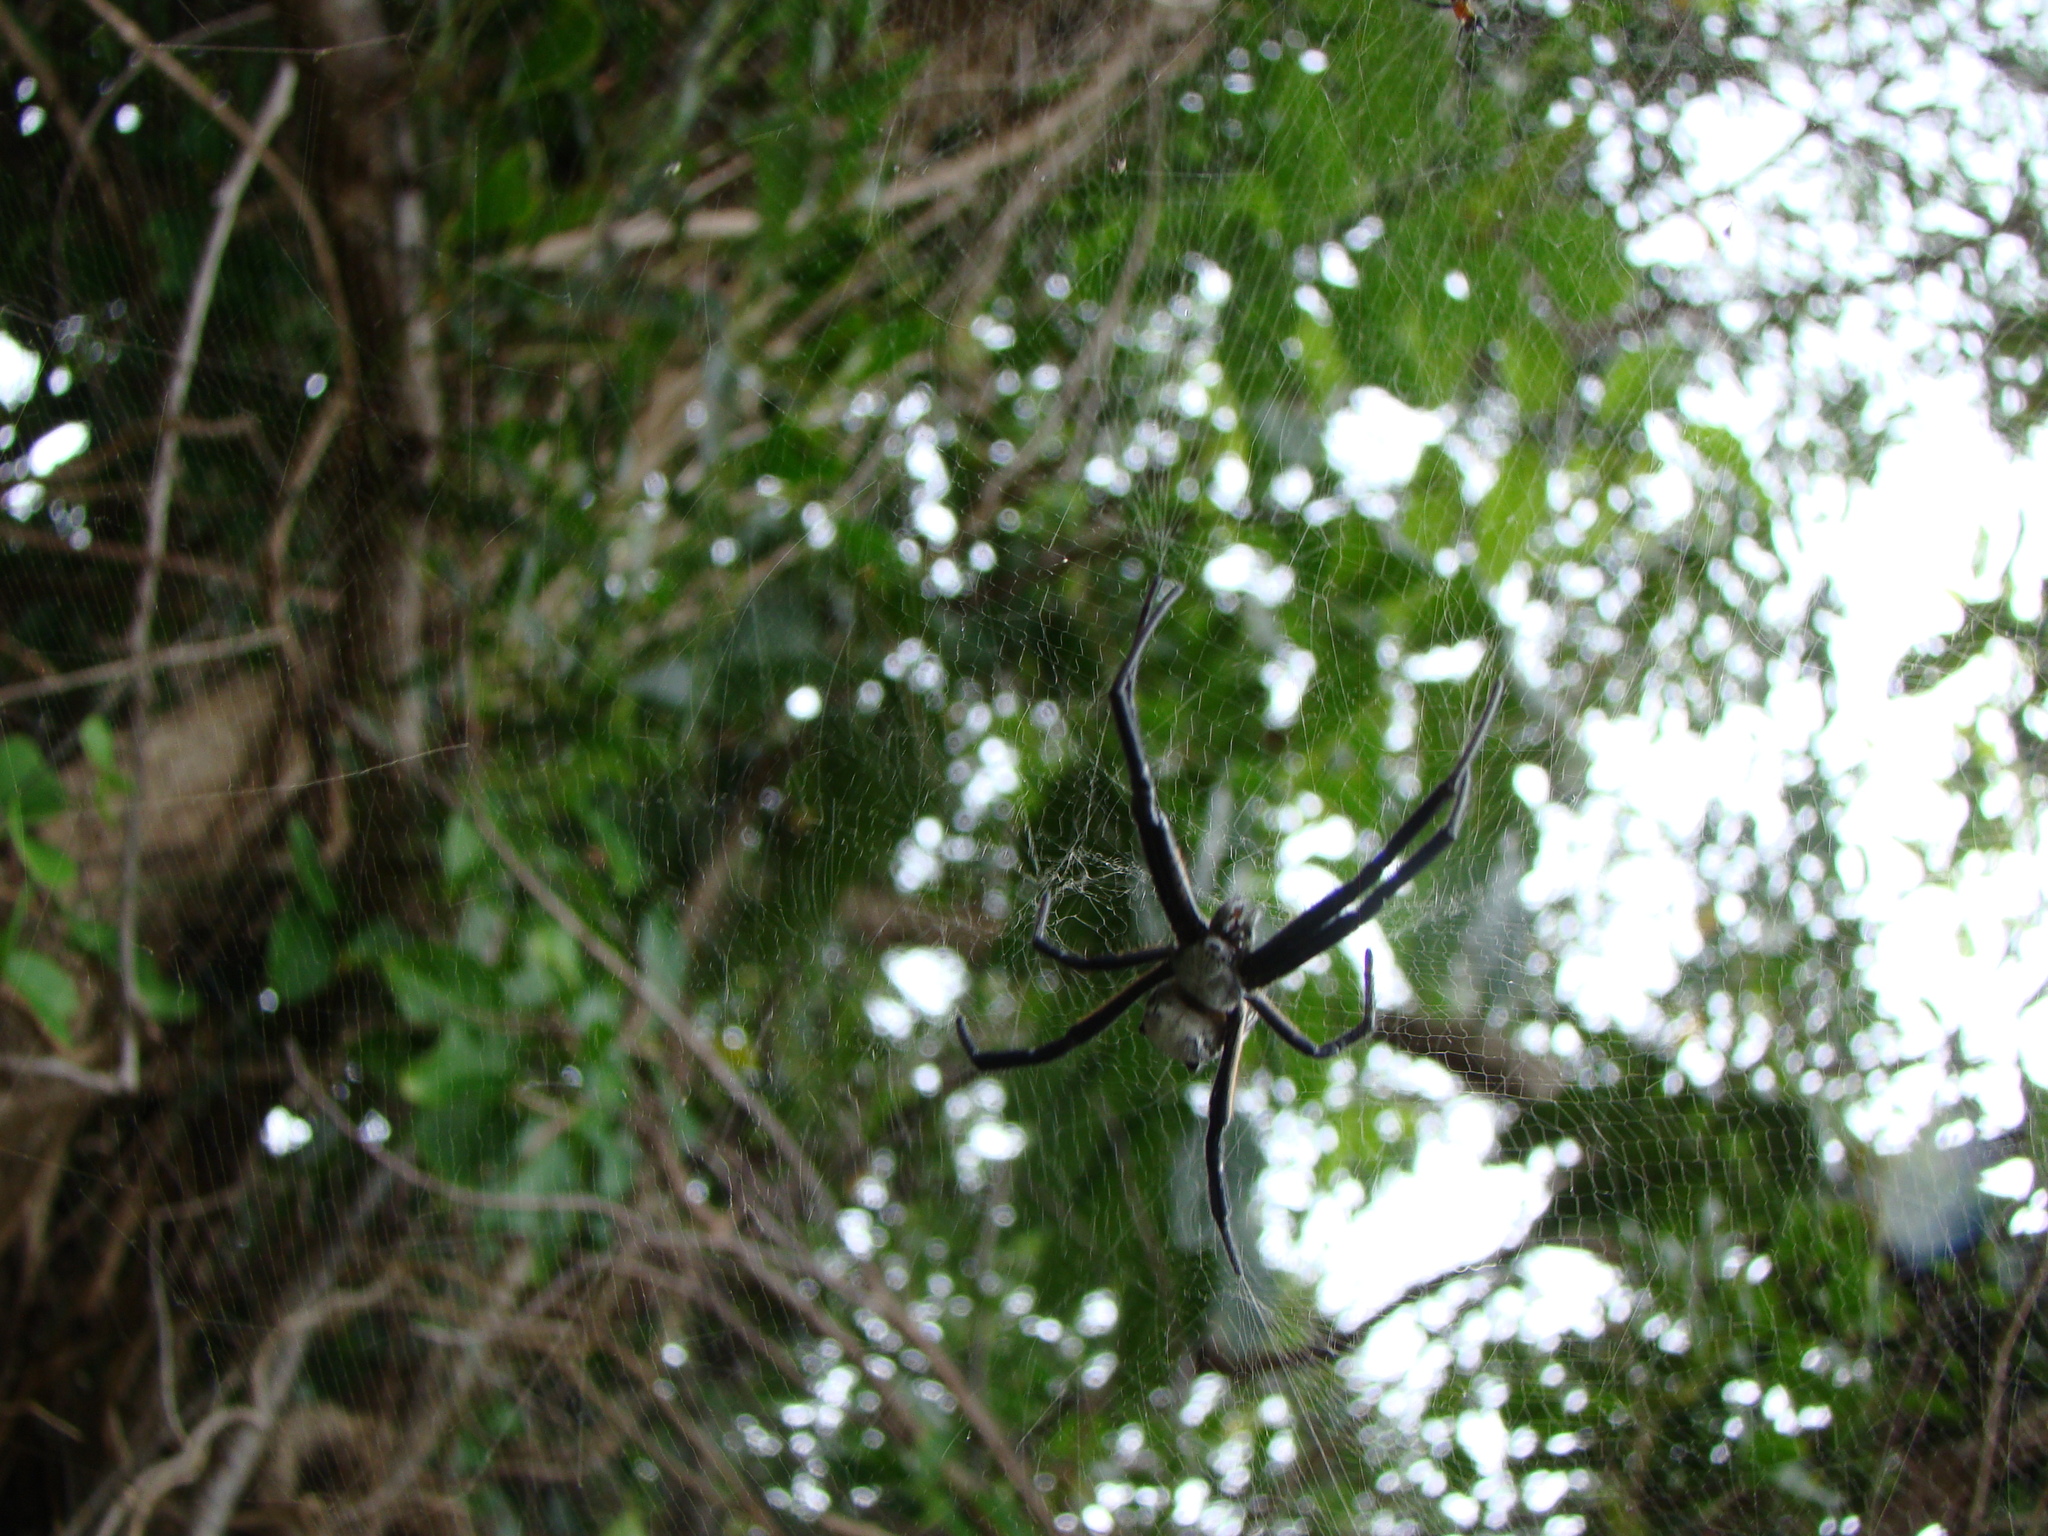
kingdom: Chromista
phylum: Ochrophyta
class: Dictyochophyceae
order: Pedinellales
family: Cyrtophoraceae
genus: Cyrtophora
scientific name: Cyrtophora moluccensis
